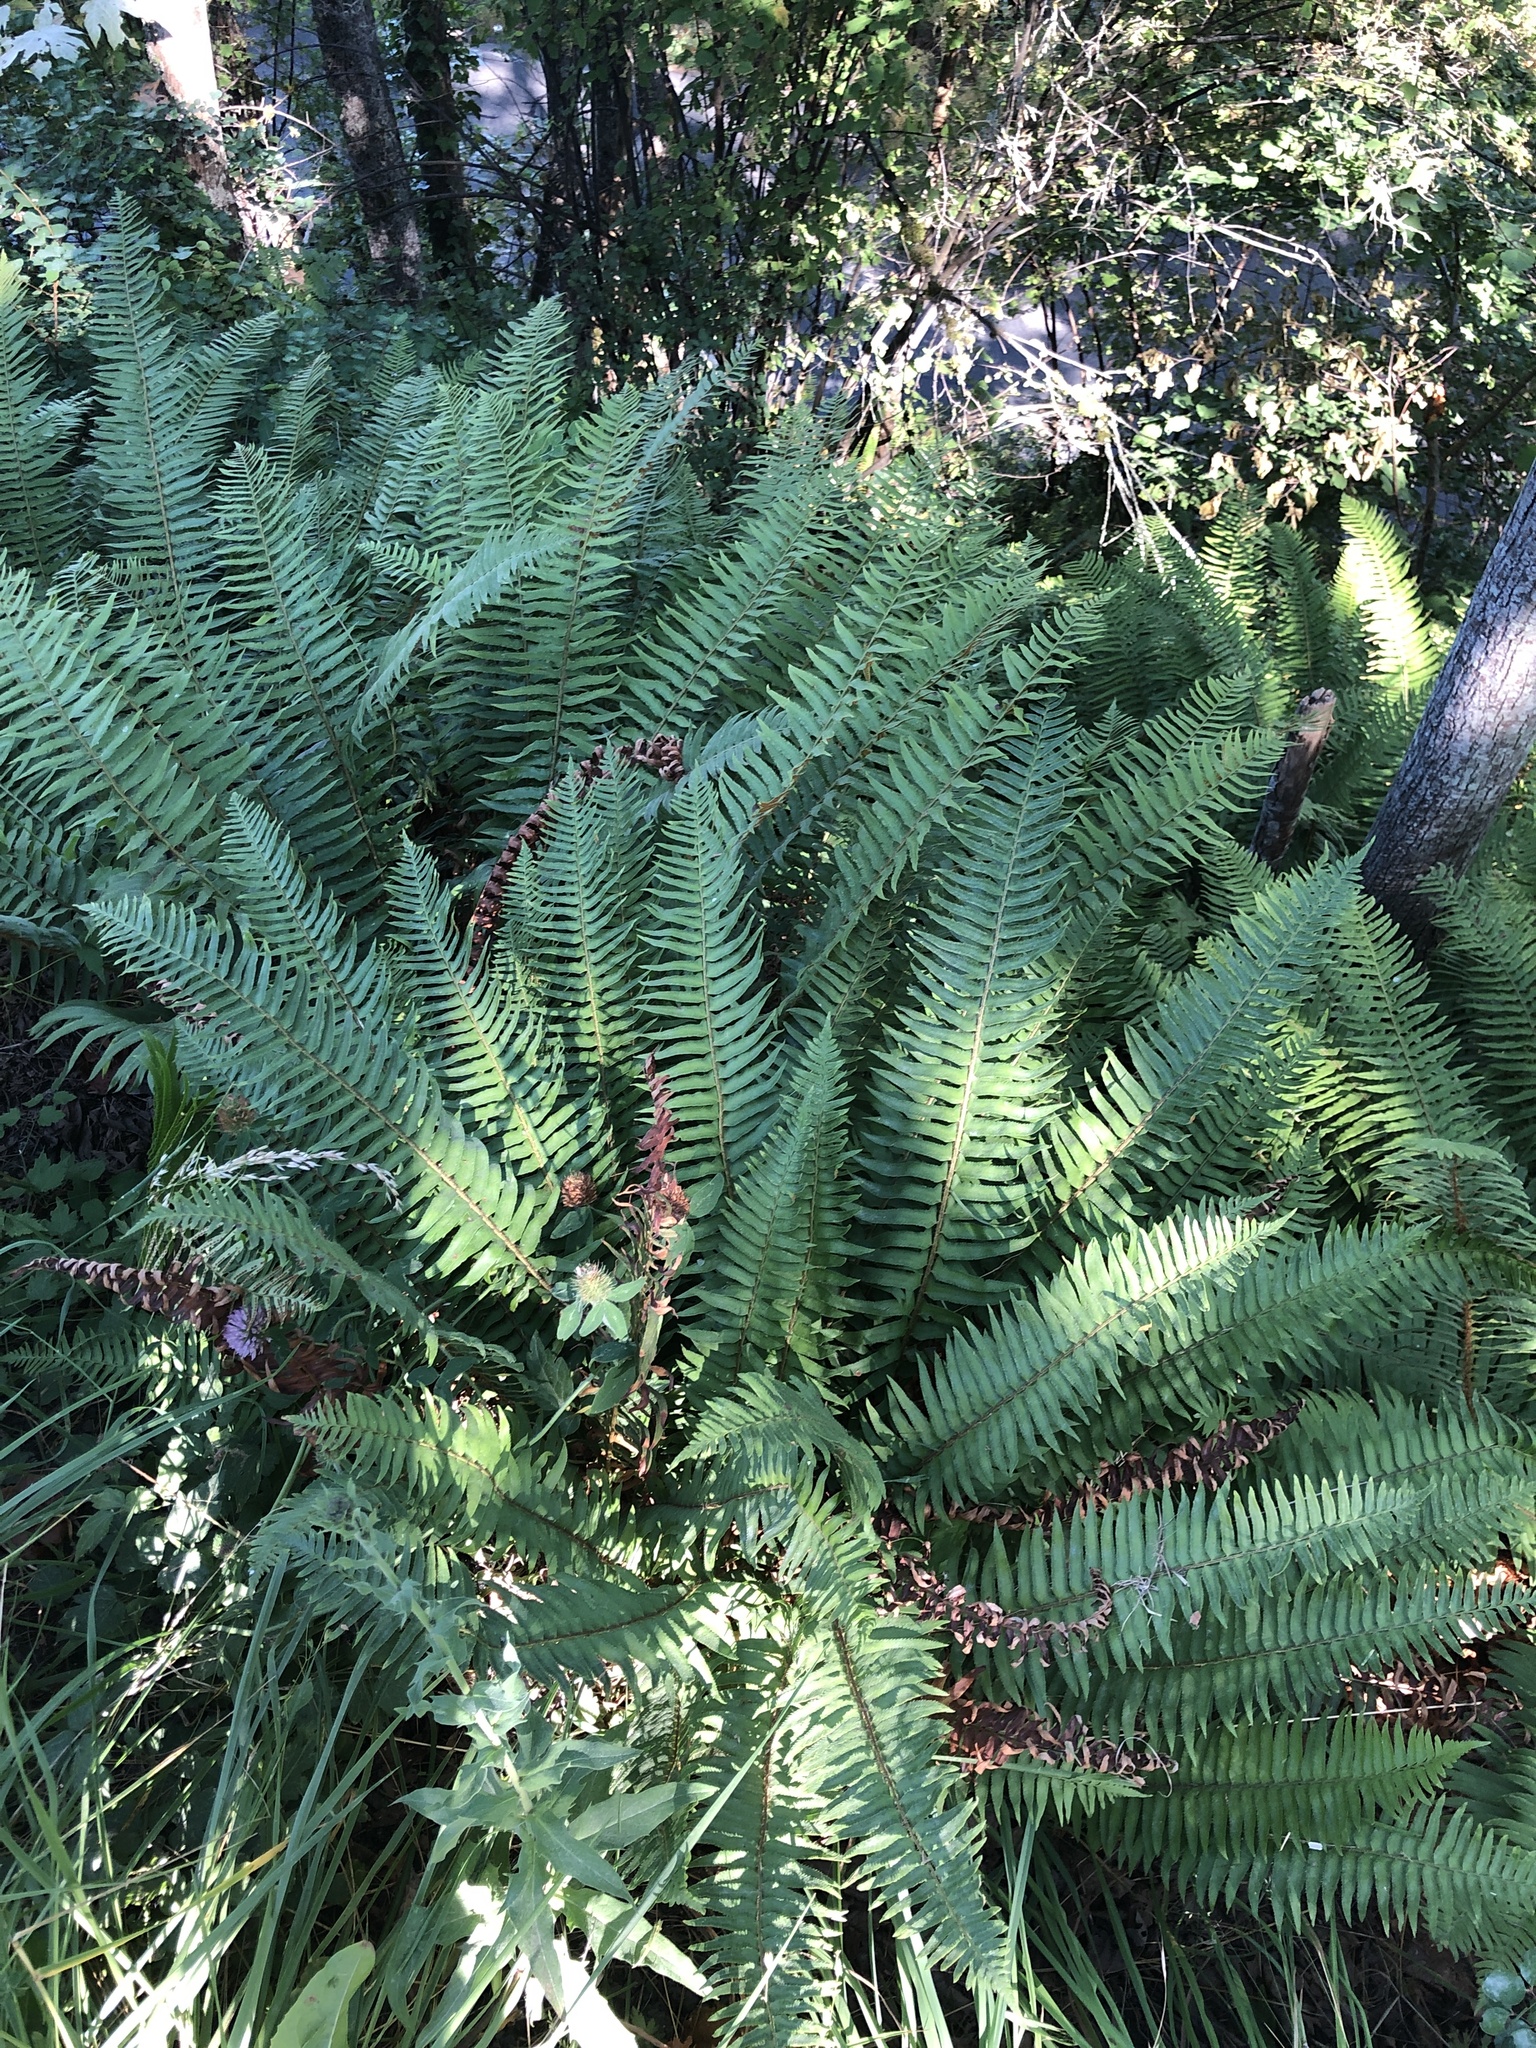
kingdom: Plantae
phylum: Tracheophyta
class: Polypodiopsida
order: Polypodiales
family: Dryopteridaceae
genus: Polystichum
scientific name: Polystichum munitum
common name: Western sword-fern
